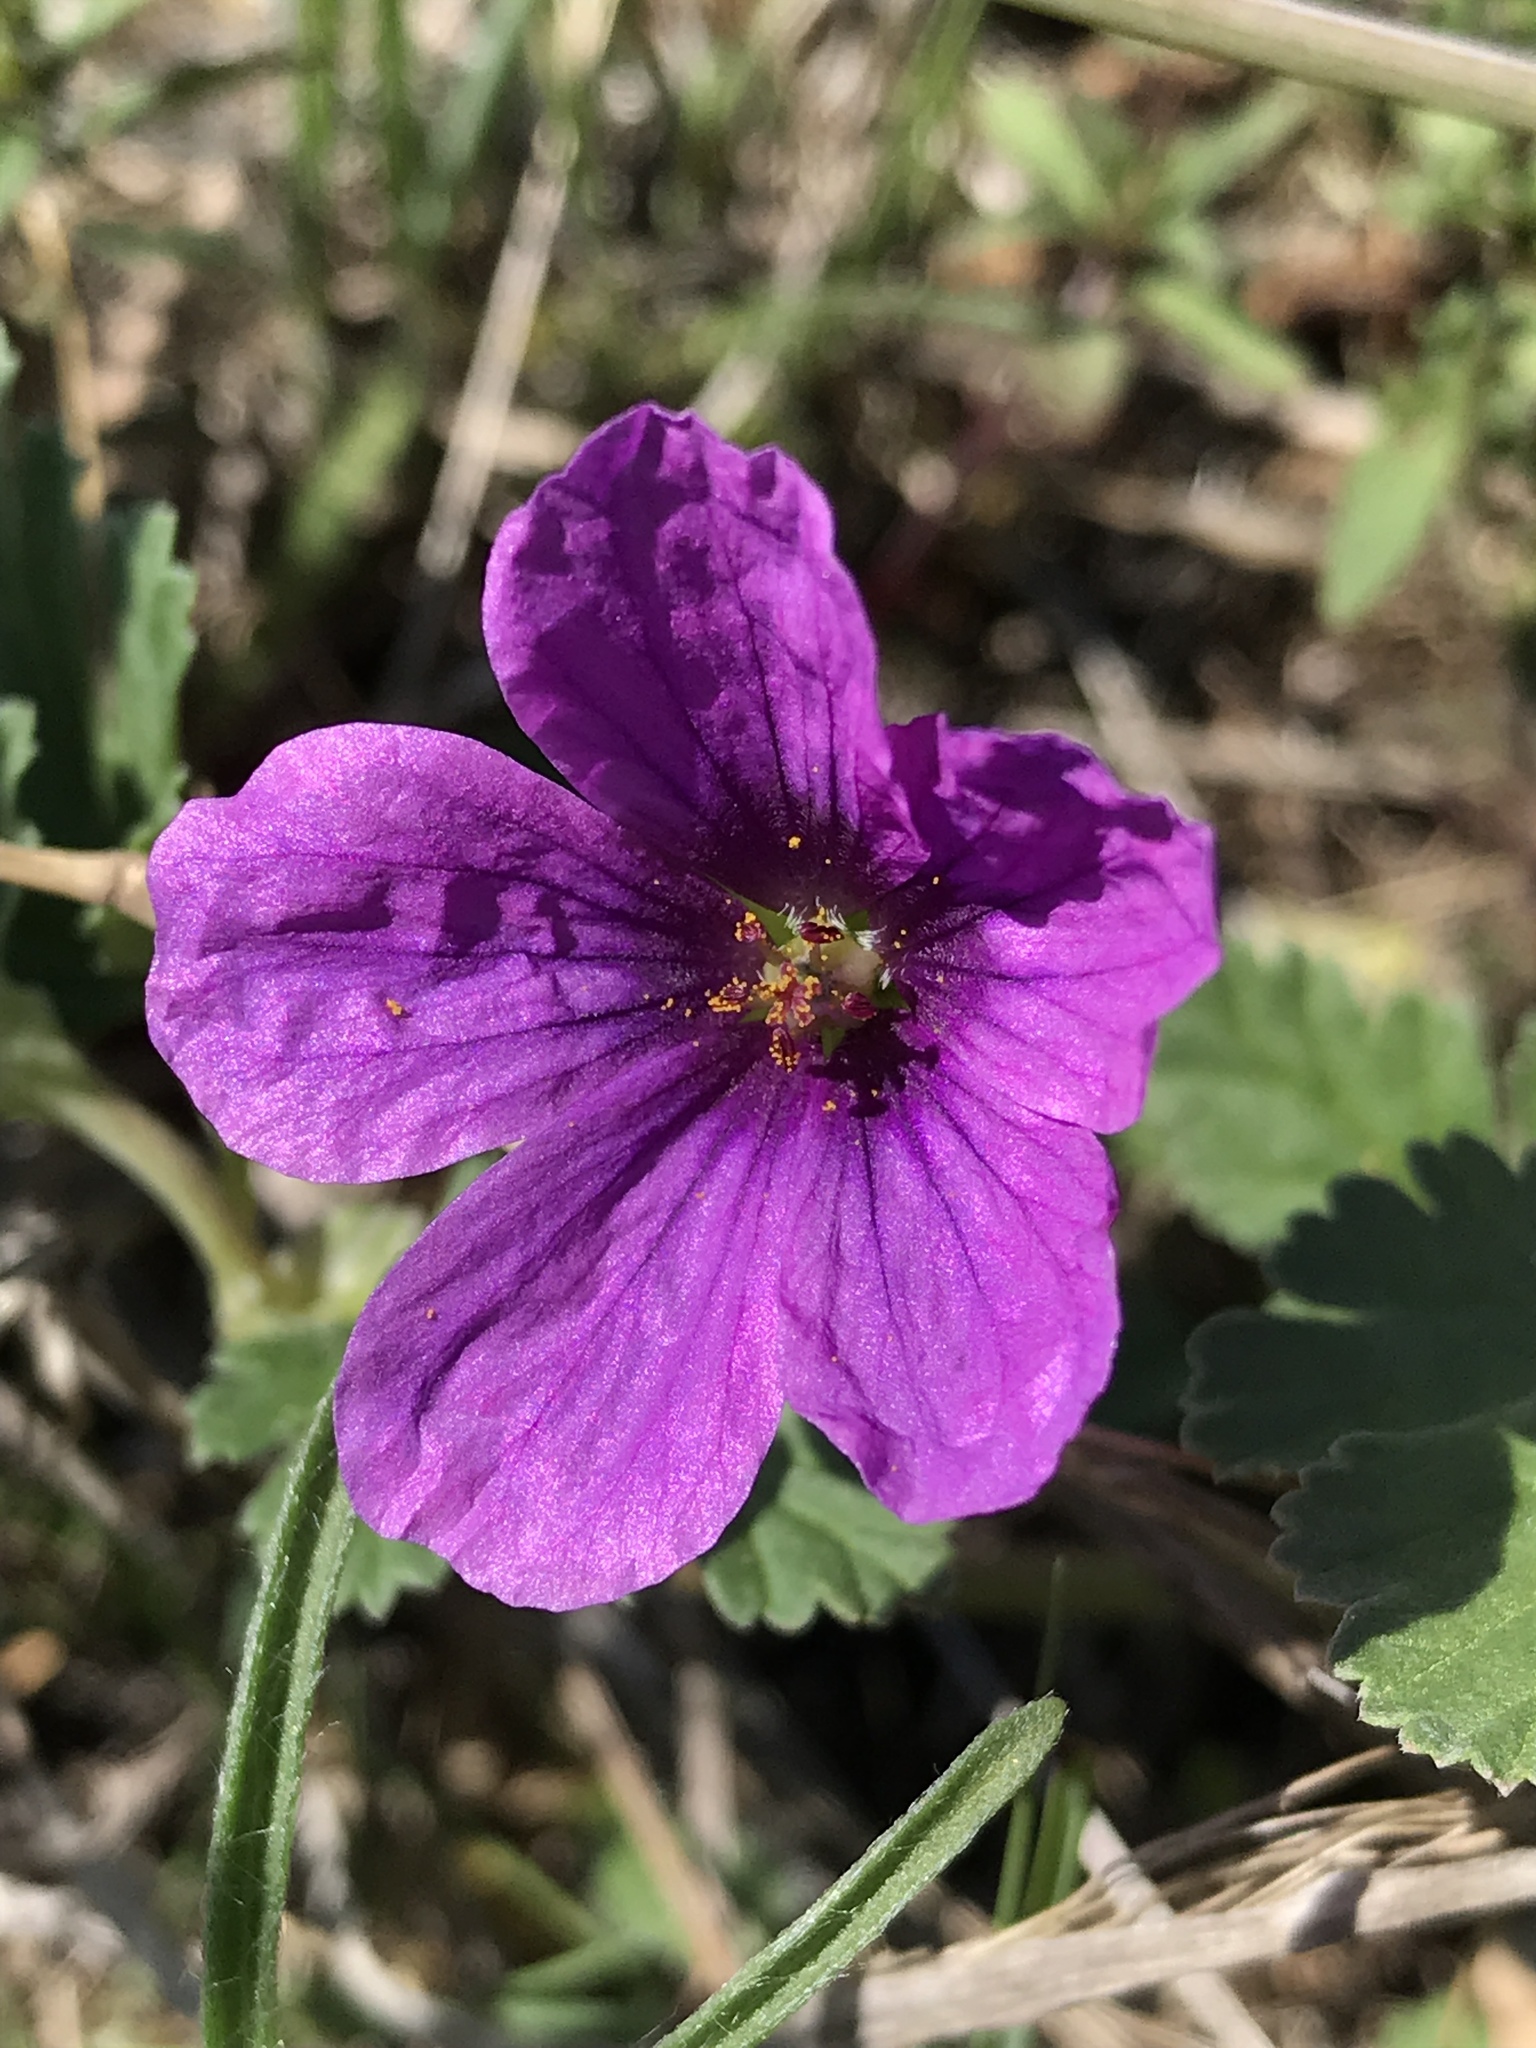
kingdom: Plantae
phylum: Tracheophyta
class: Magnoliopsida
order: Geraniales
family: Geraniaceae
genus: Erodium
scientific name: Erodium texanum
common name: Texas stork's-bill
